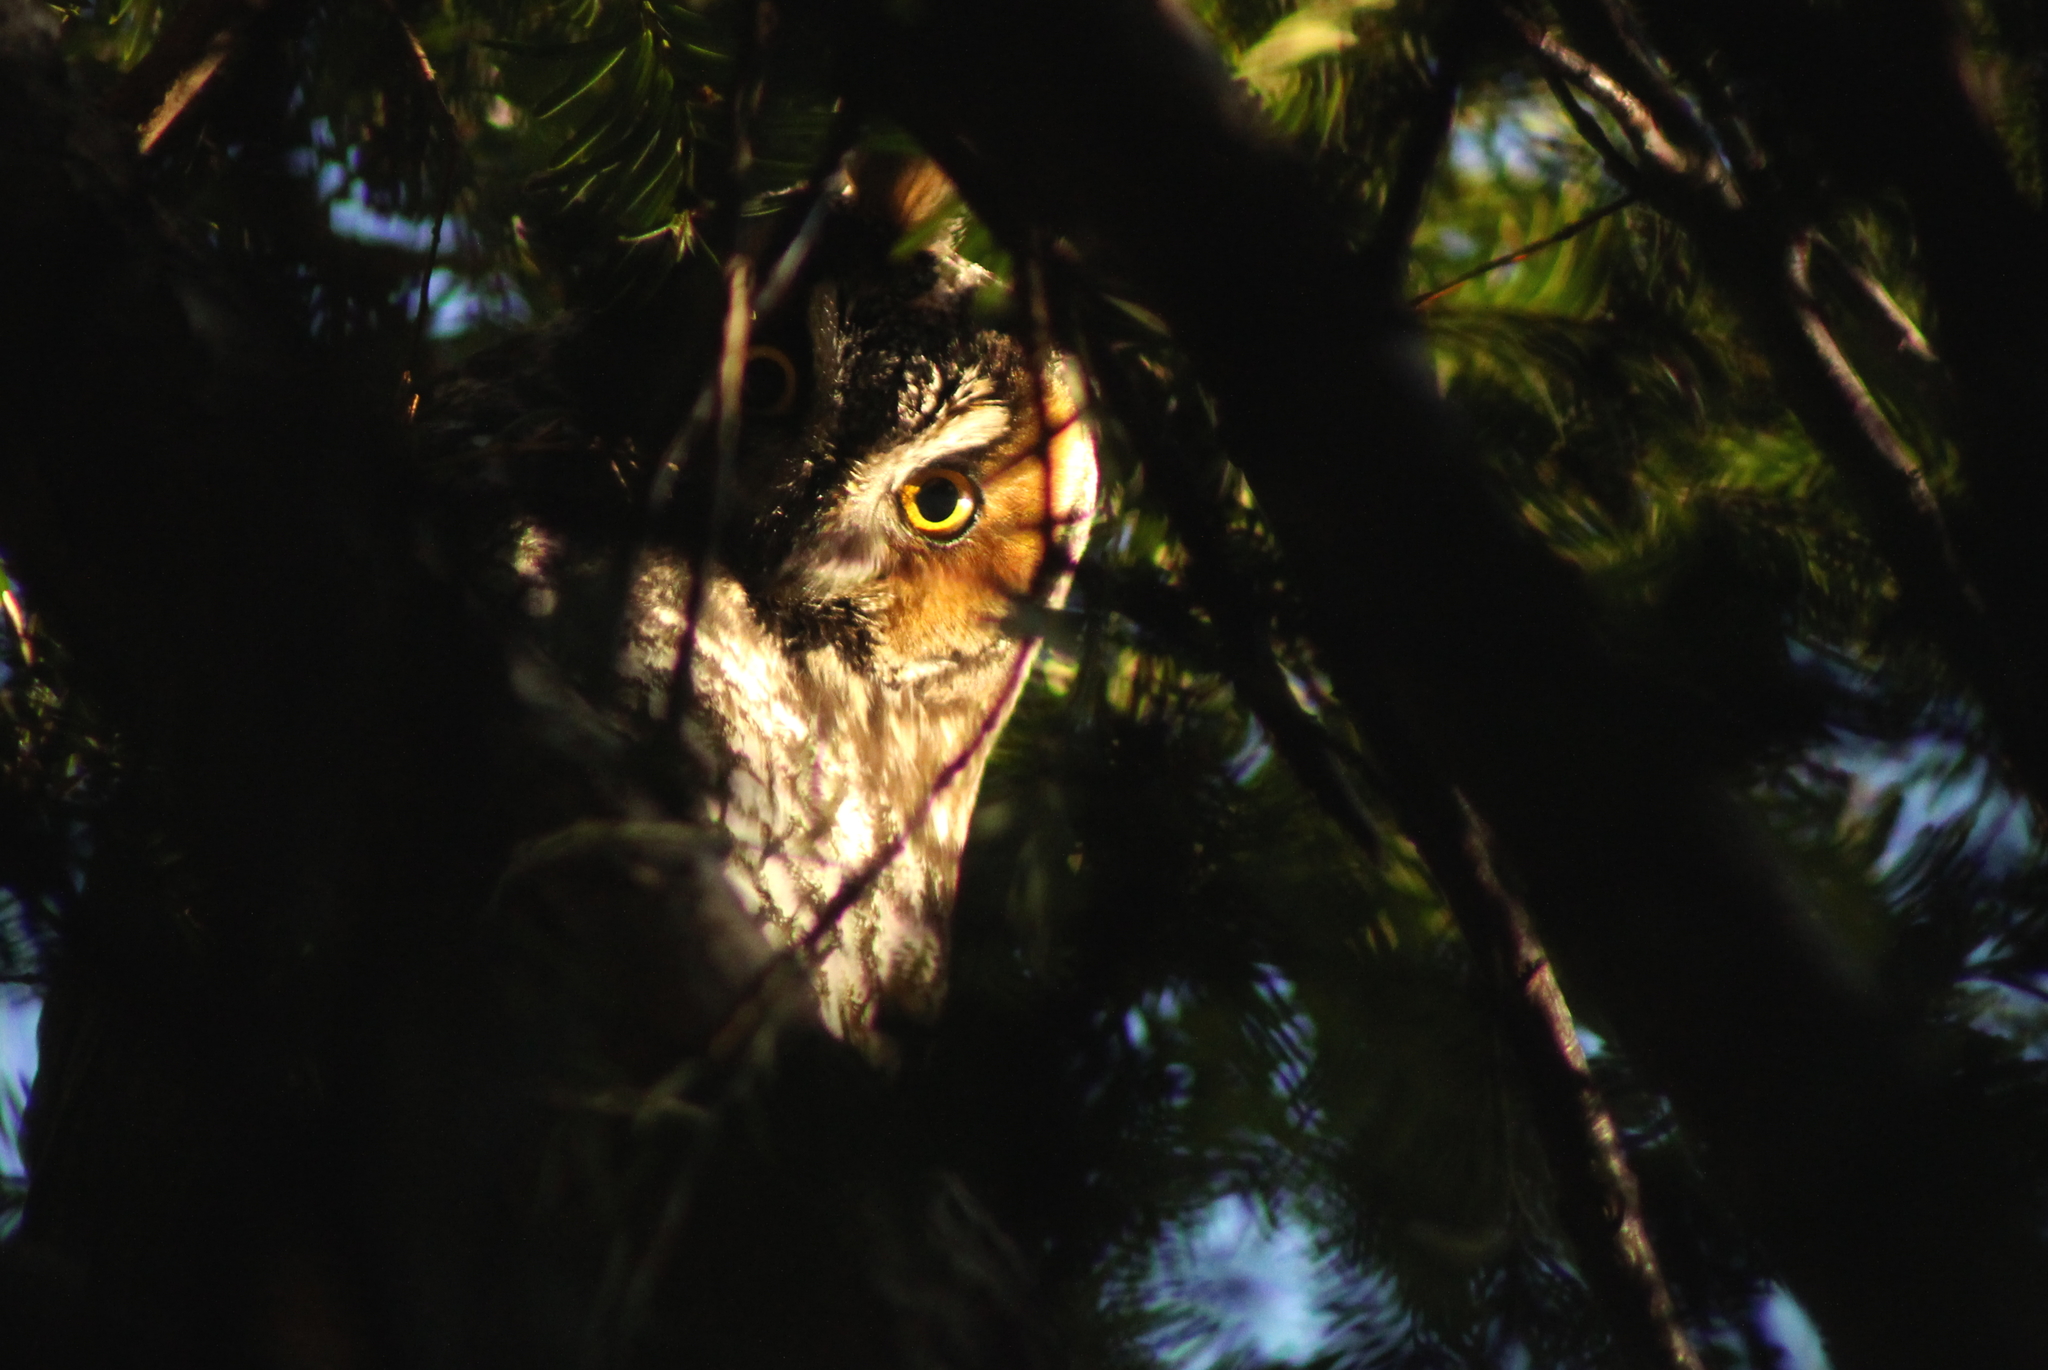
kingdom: Animalia
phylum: Chordata
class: Aves
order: Strigiformes
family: Strigidae
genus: Asio
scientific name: Asio otus
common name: Long-eared owl
